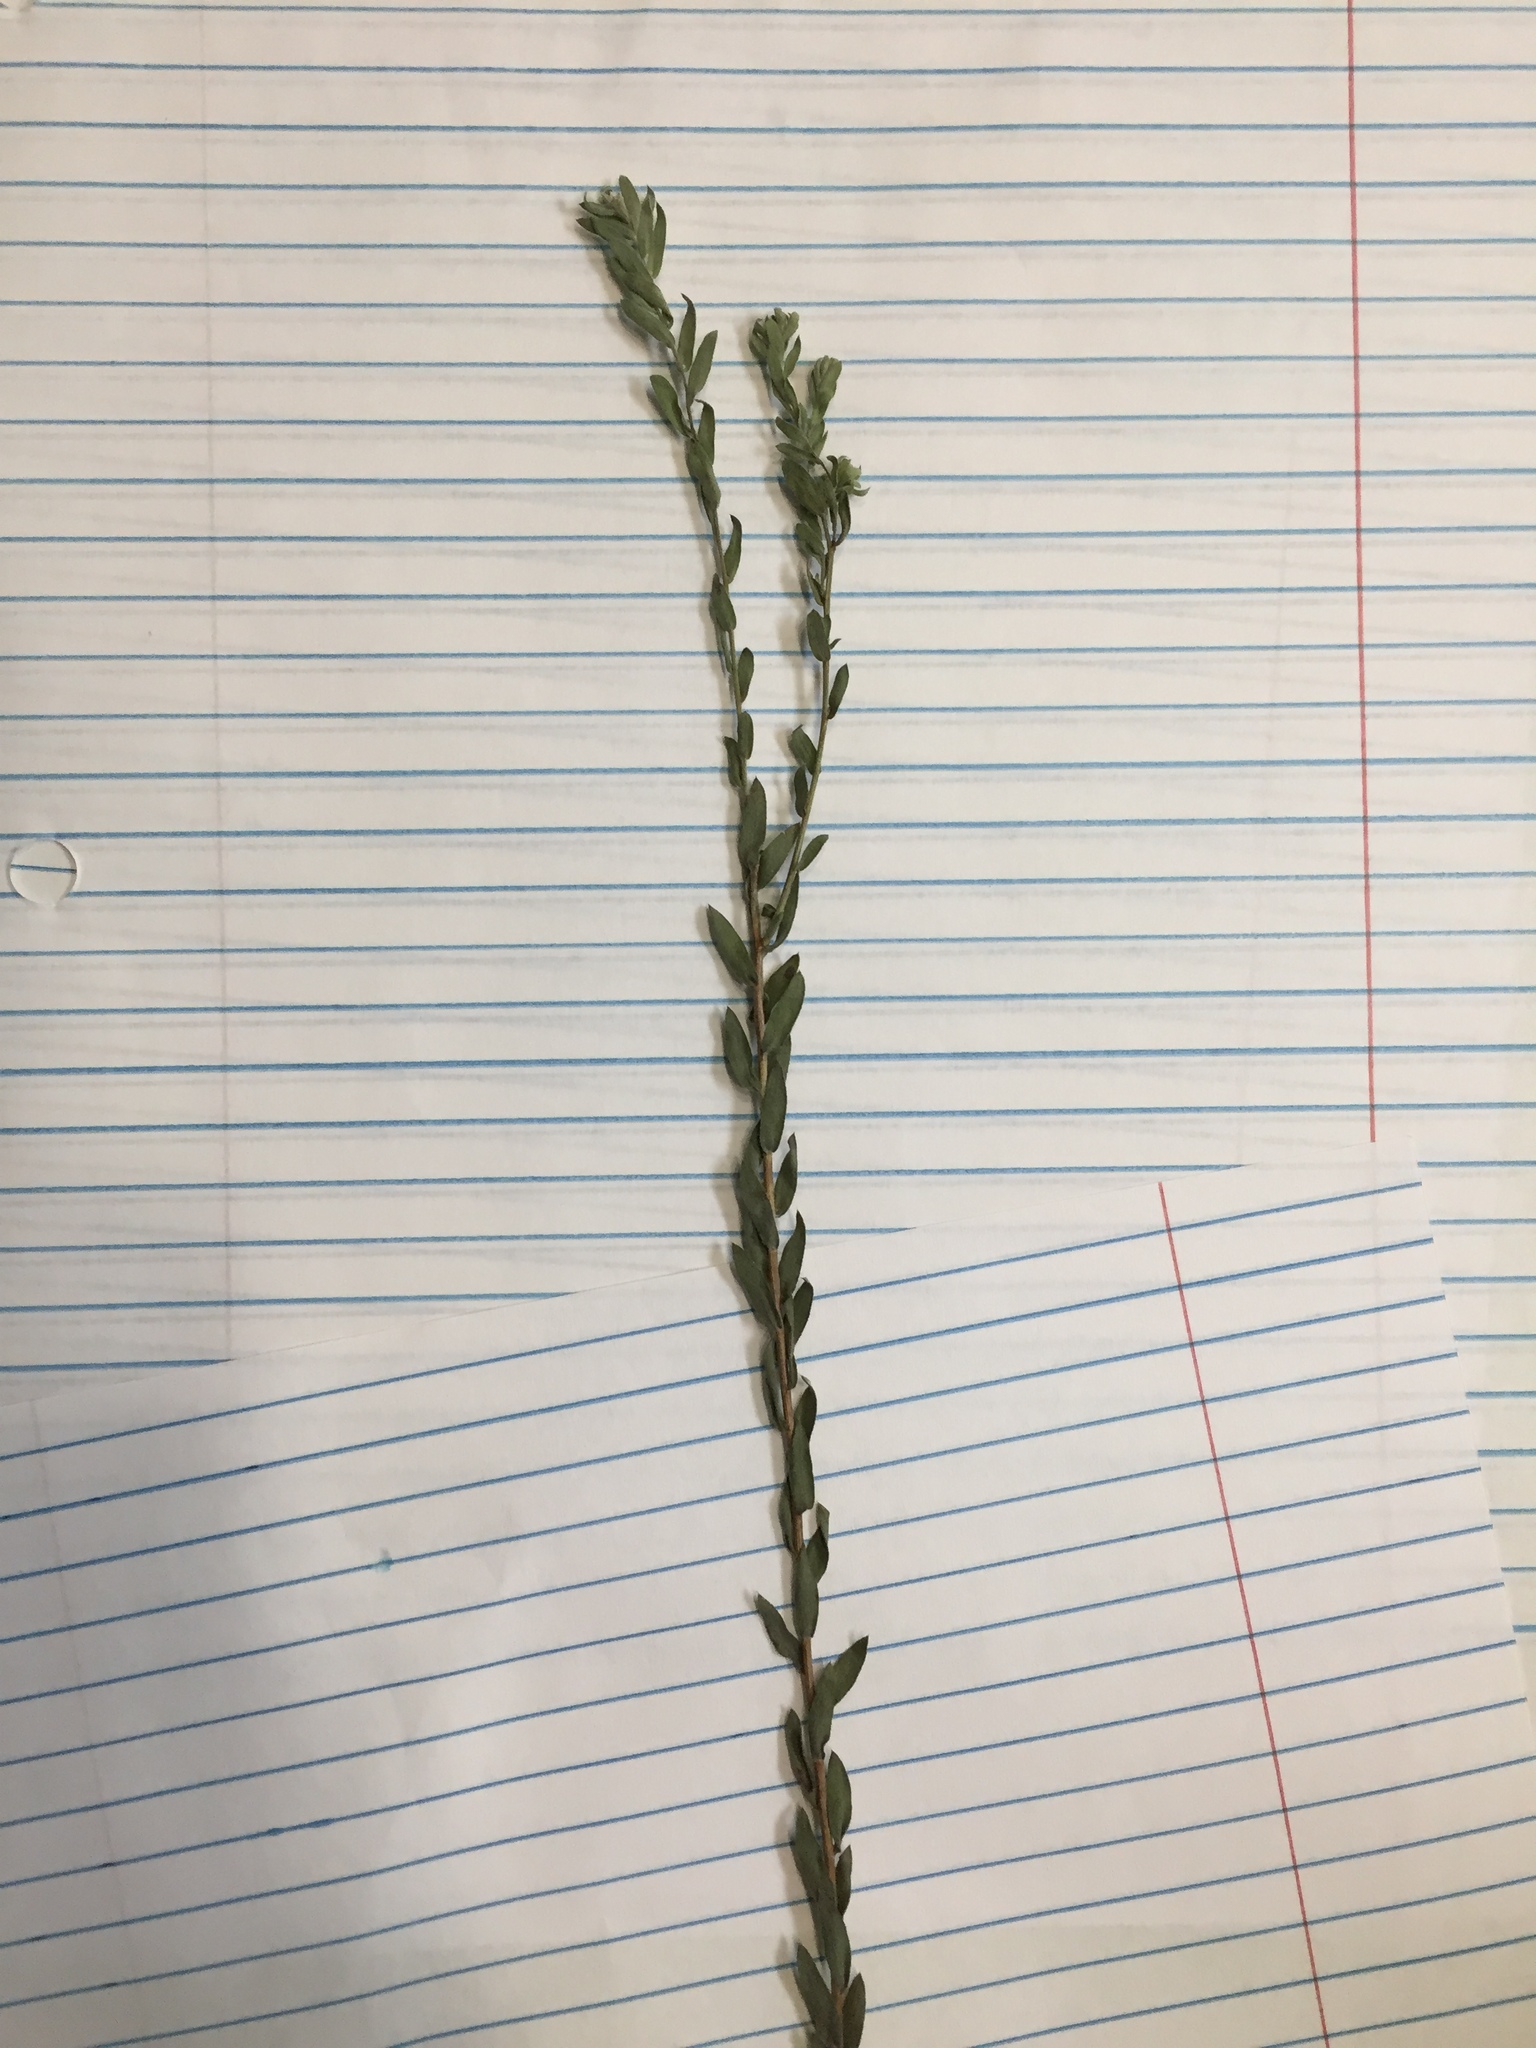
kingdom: Plantae
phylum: Tracheophyta
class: Magnoliopsida
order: Asterales
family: Asteraceae
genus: Symphyotrichum
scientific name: Symphyotrichum concolor
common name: Eastern silver aster
